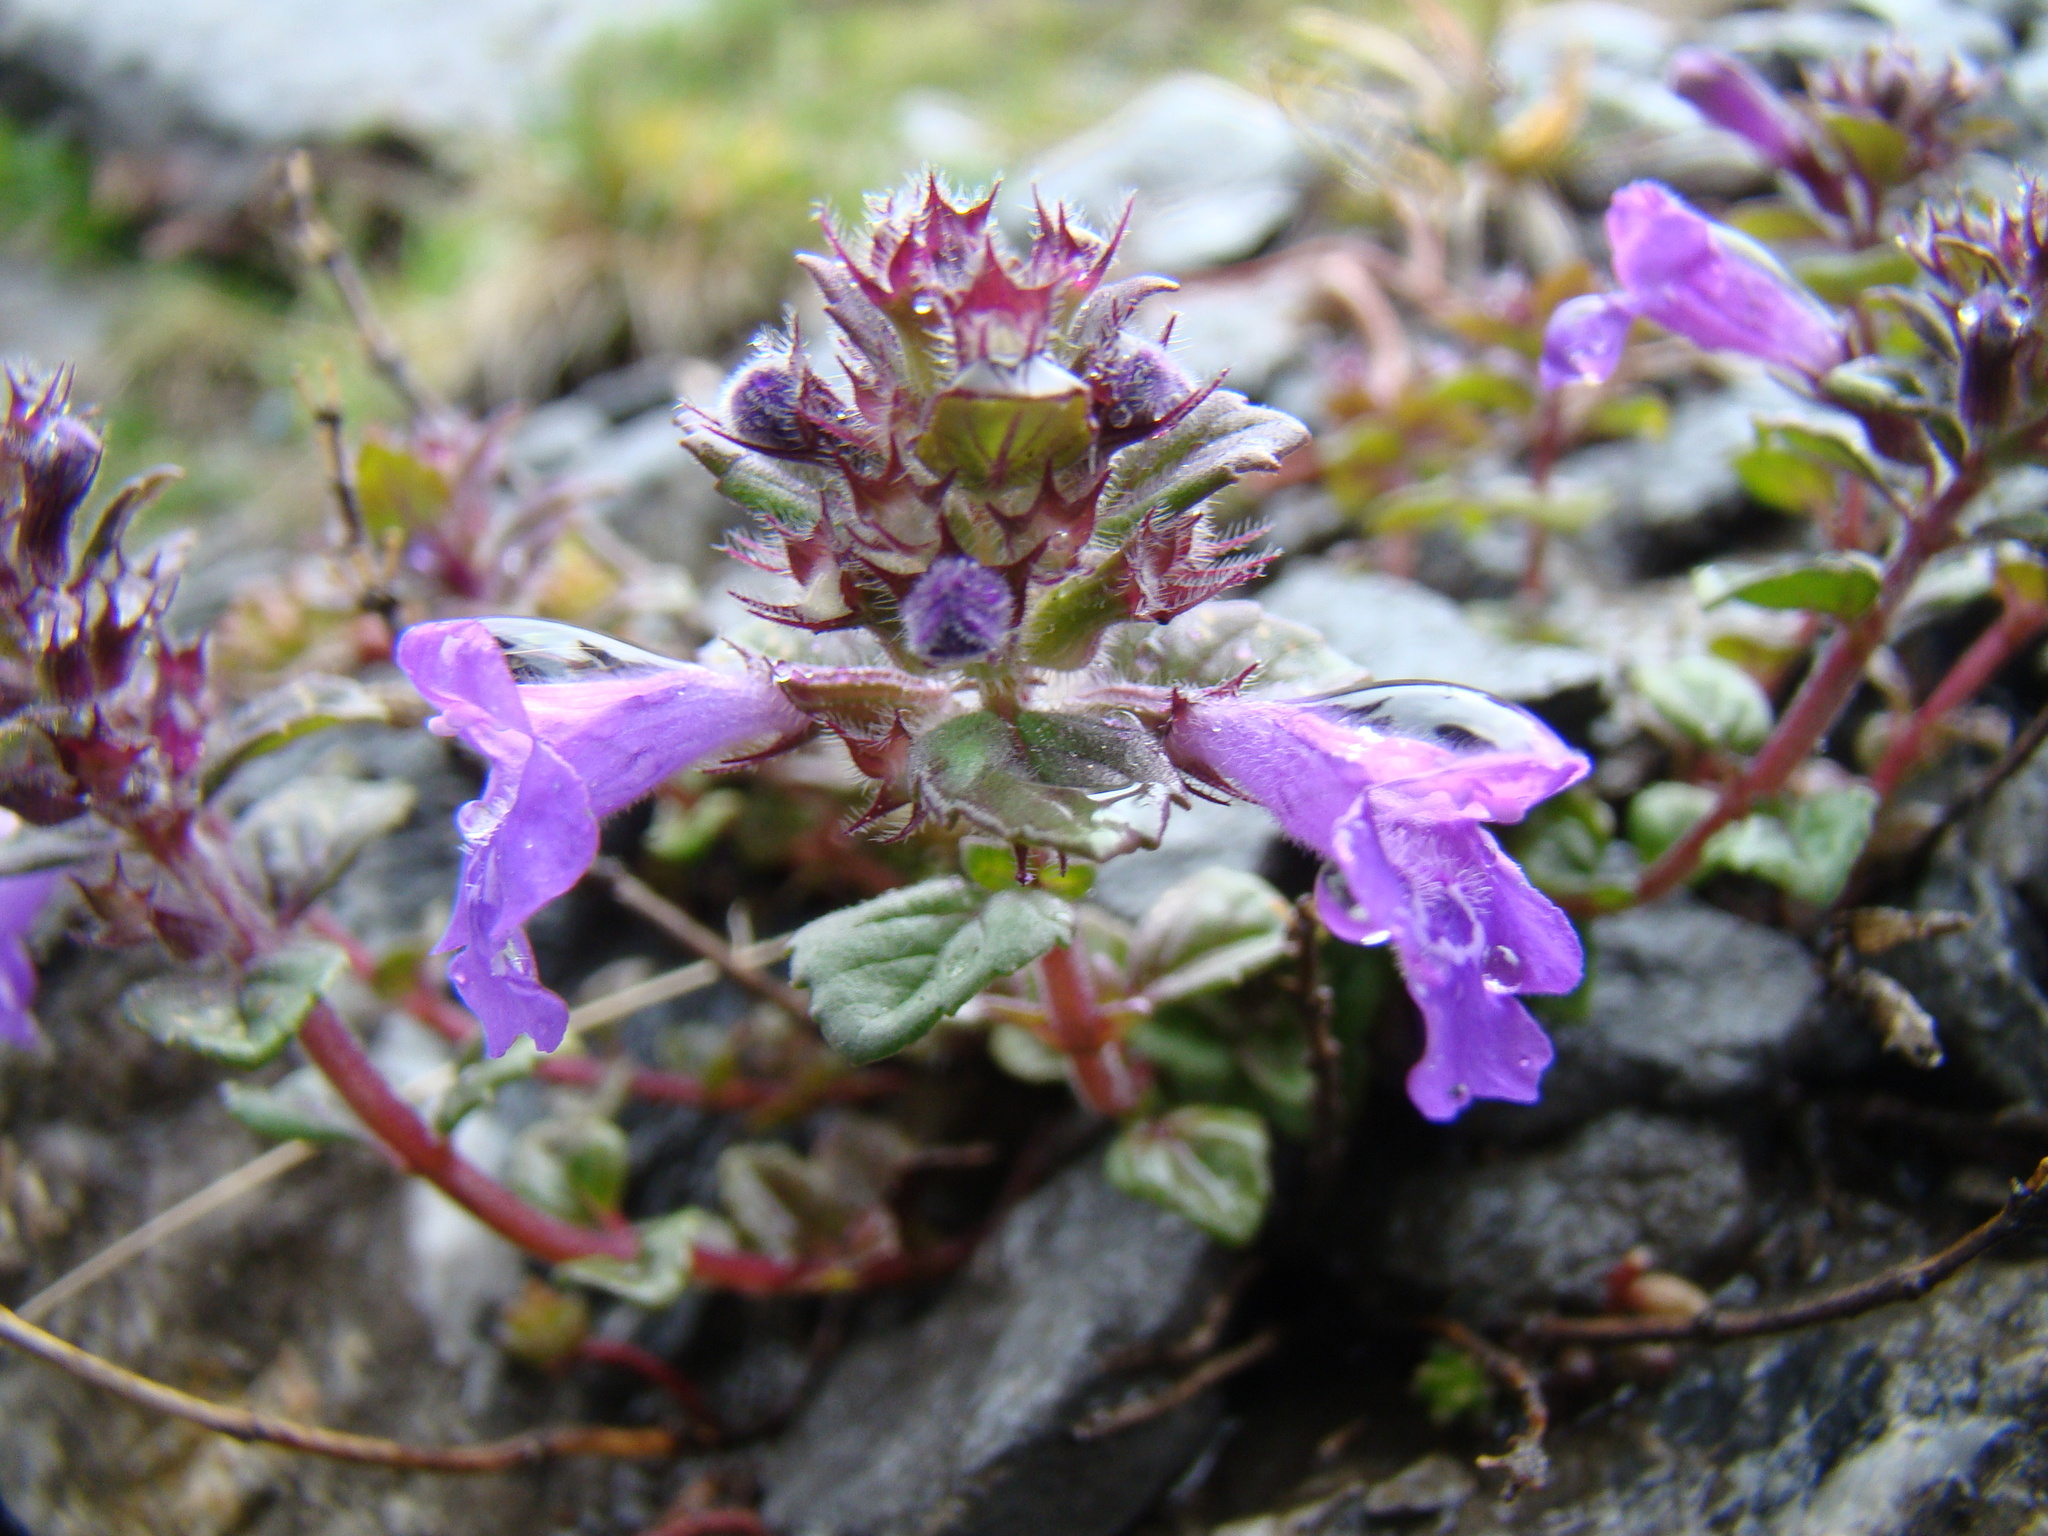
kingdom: Plantae
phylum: Tracheophyta
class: Magnoliopsida
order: Lamiales
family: Lamiaceae
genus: Clinopodium
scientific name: Clinopodium alpinum
